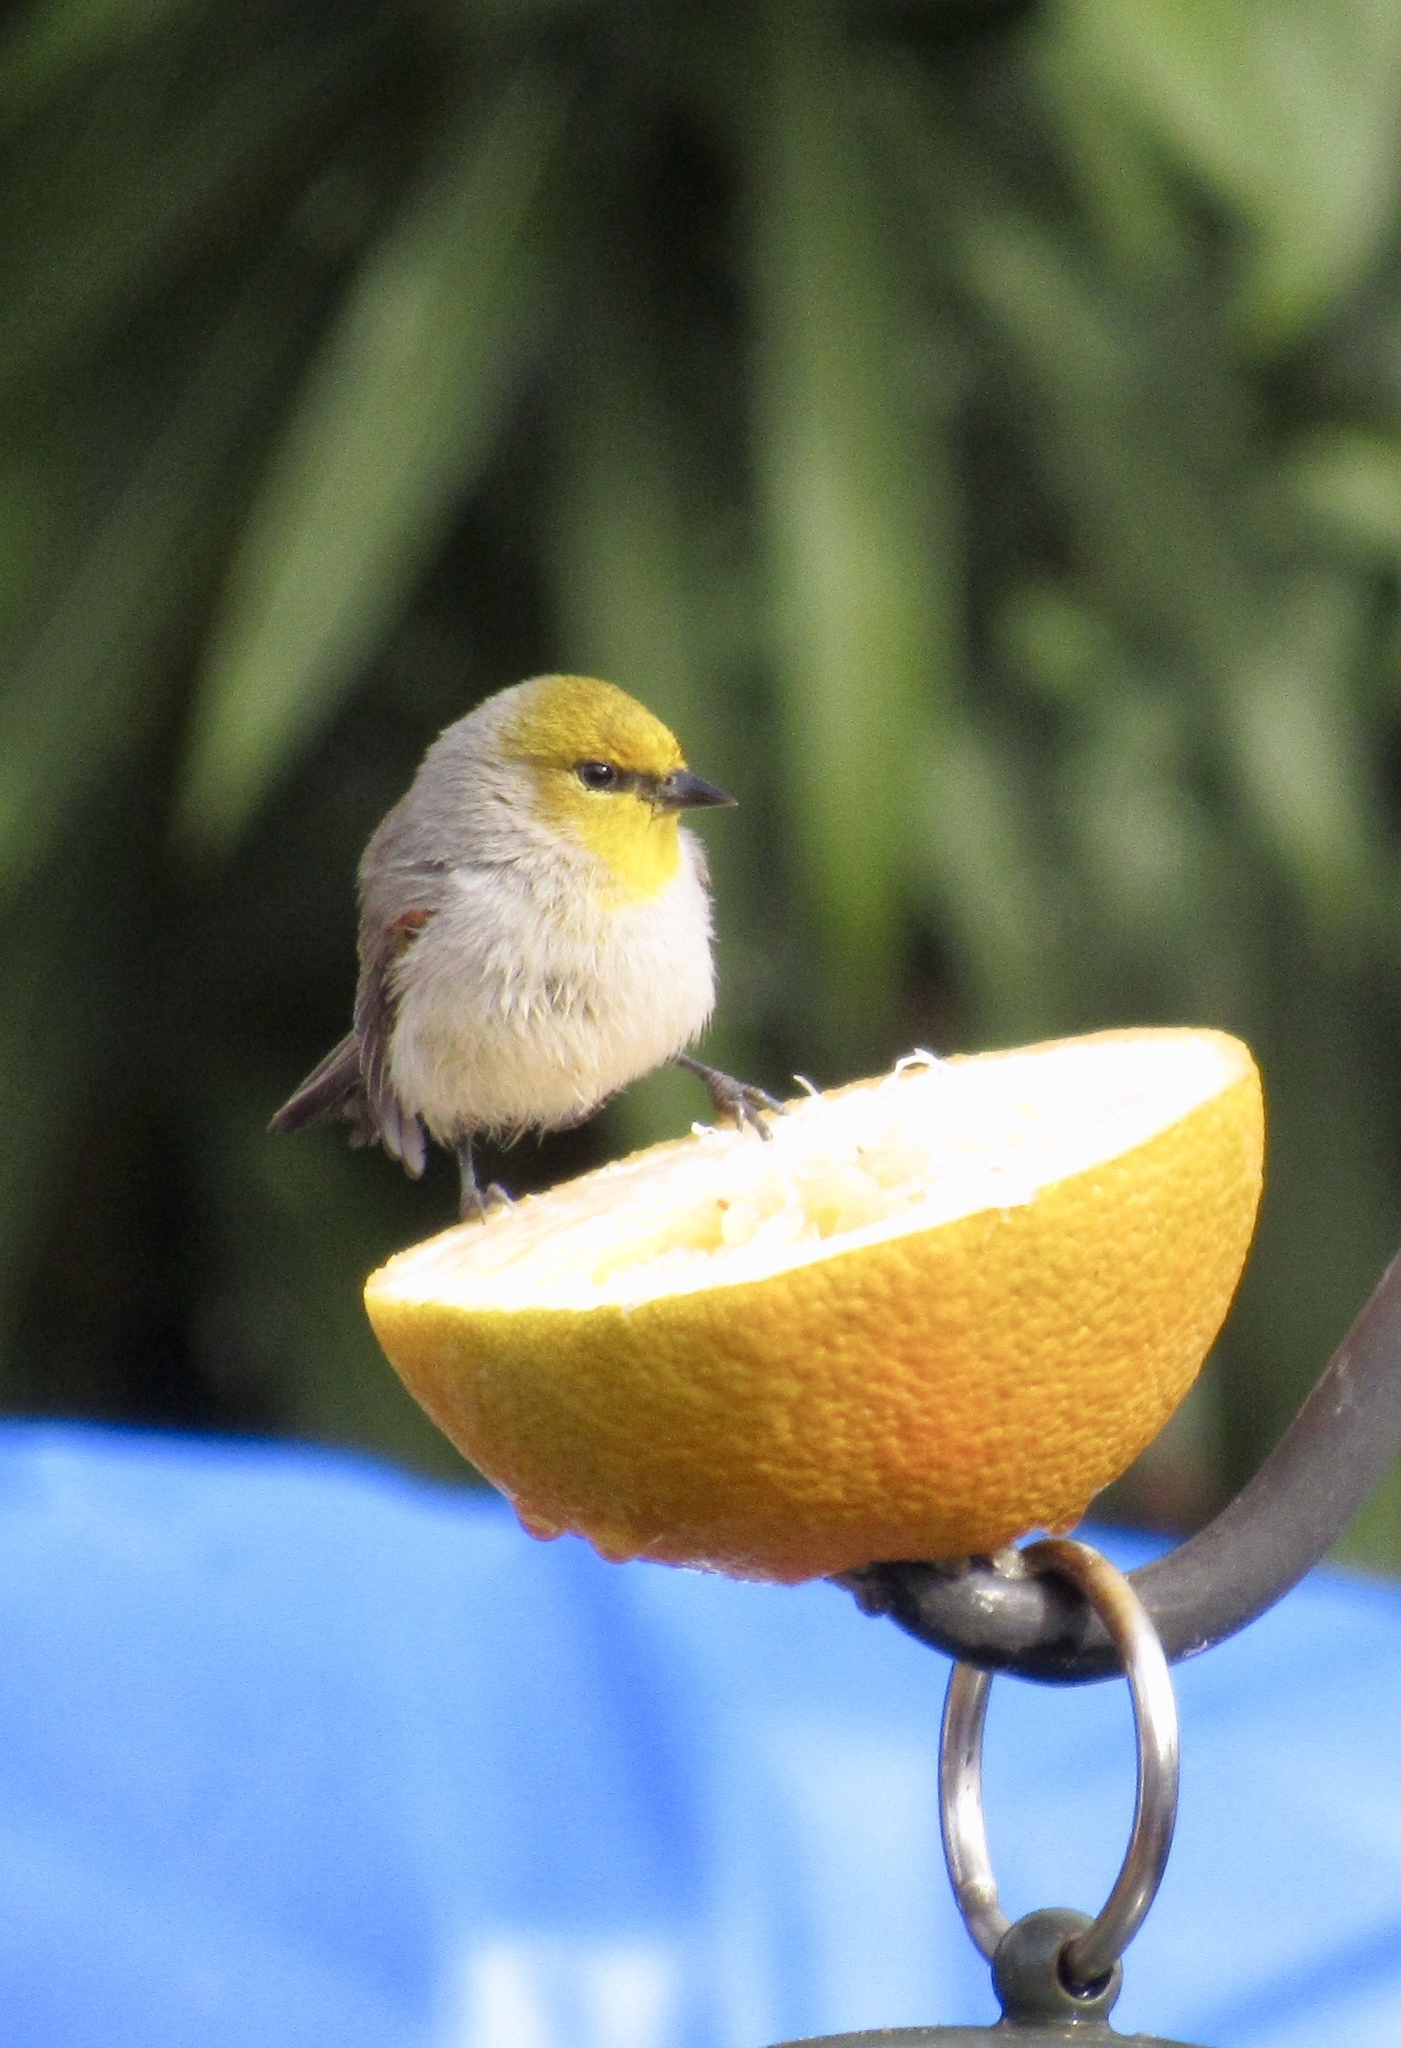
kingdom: Animalia
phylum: Chordata
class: Aves
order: Passeriformes
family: Remizidae
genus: Auriparus
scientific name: Auriparus flaviceps
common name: Verdin
